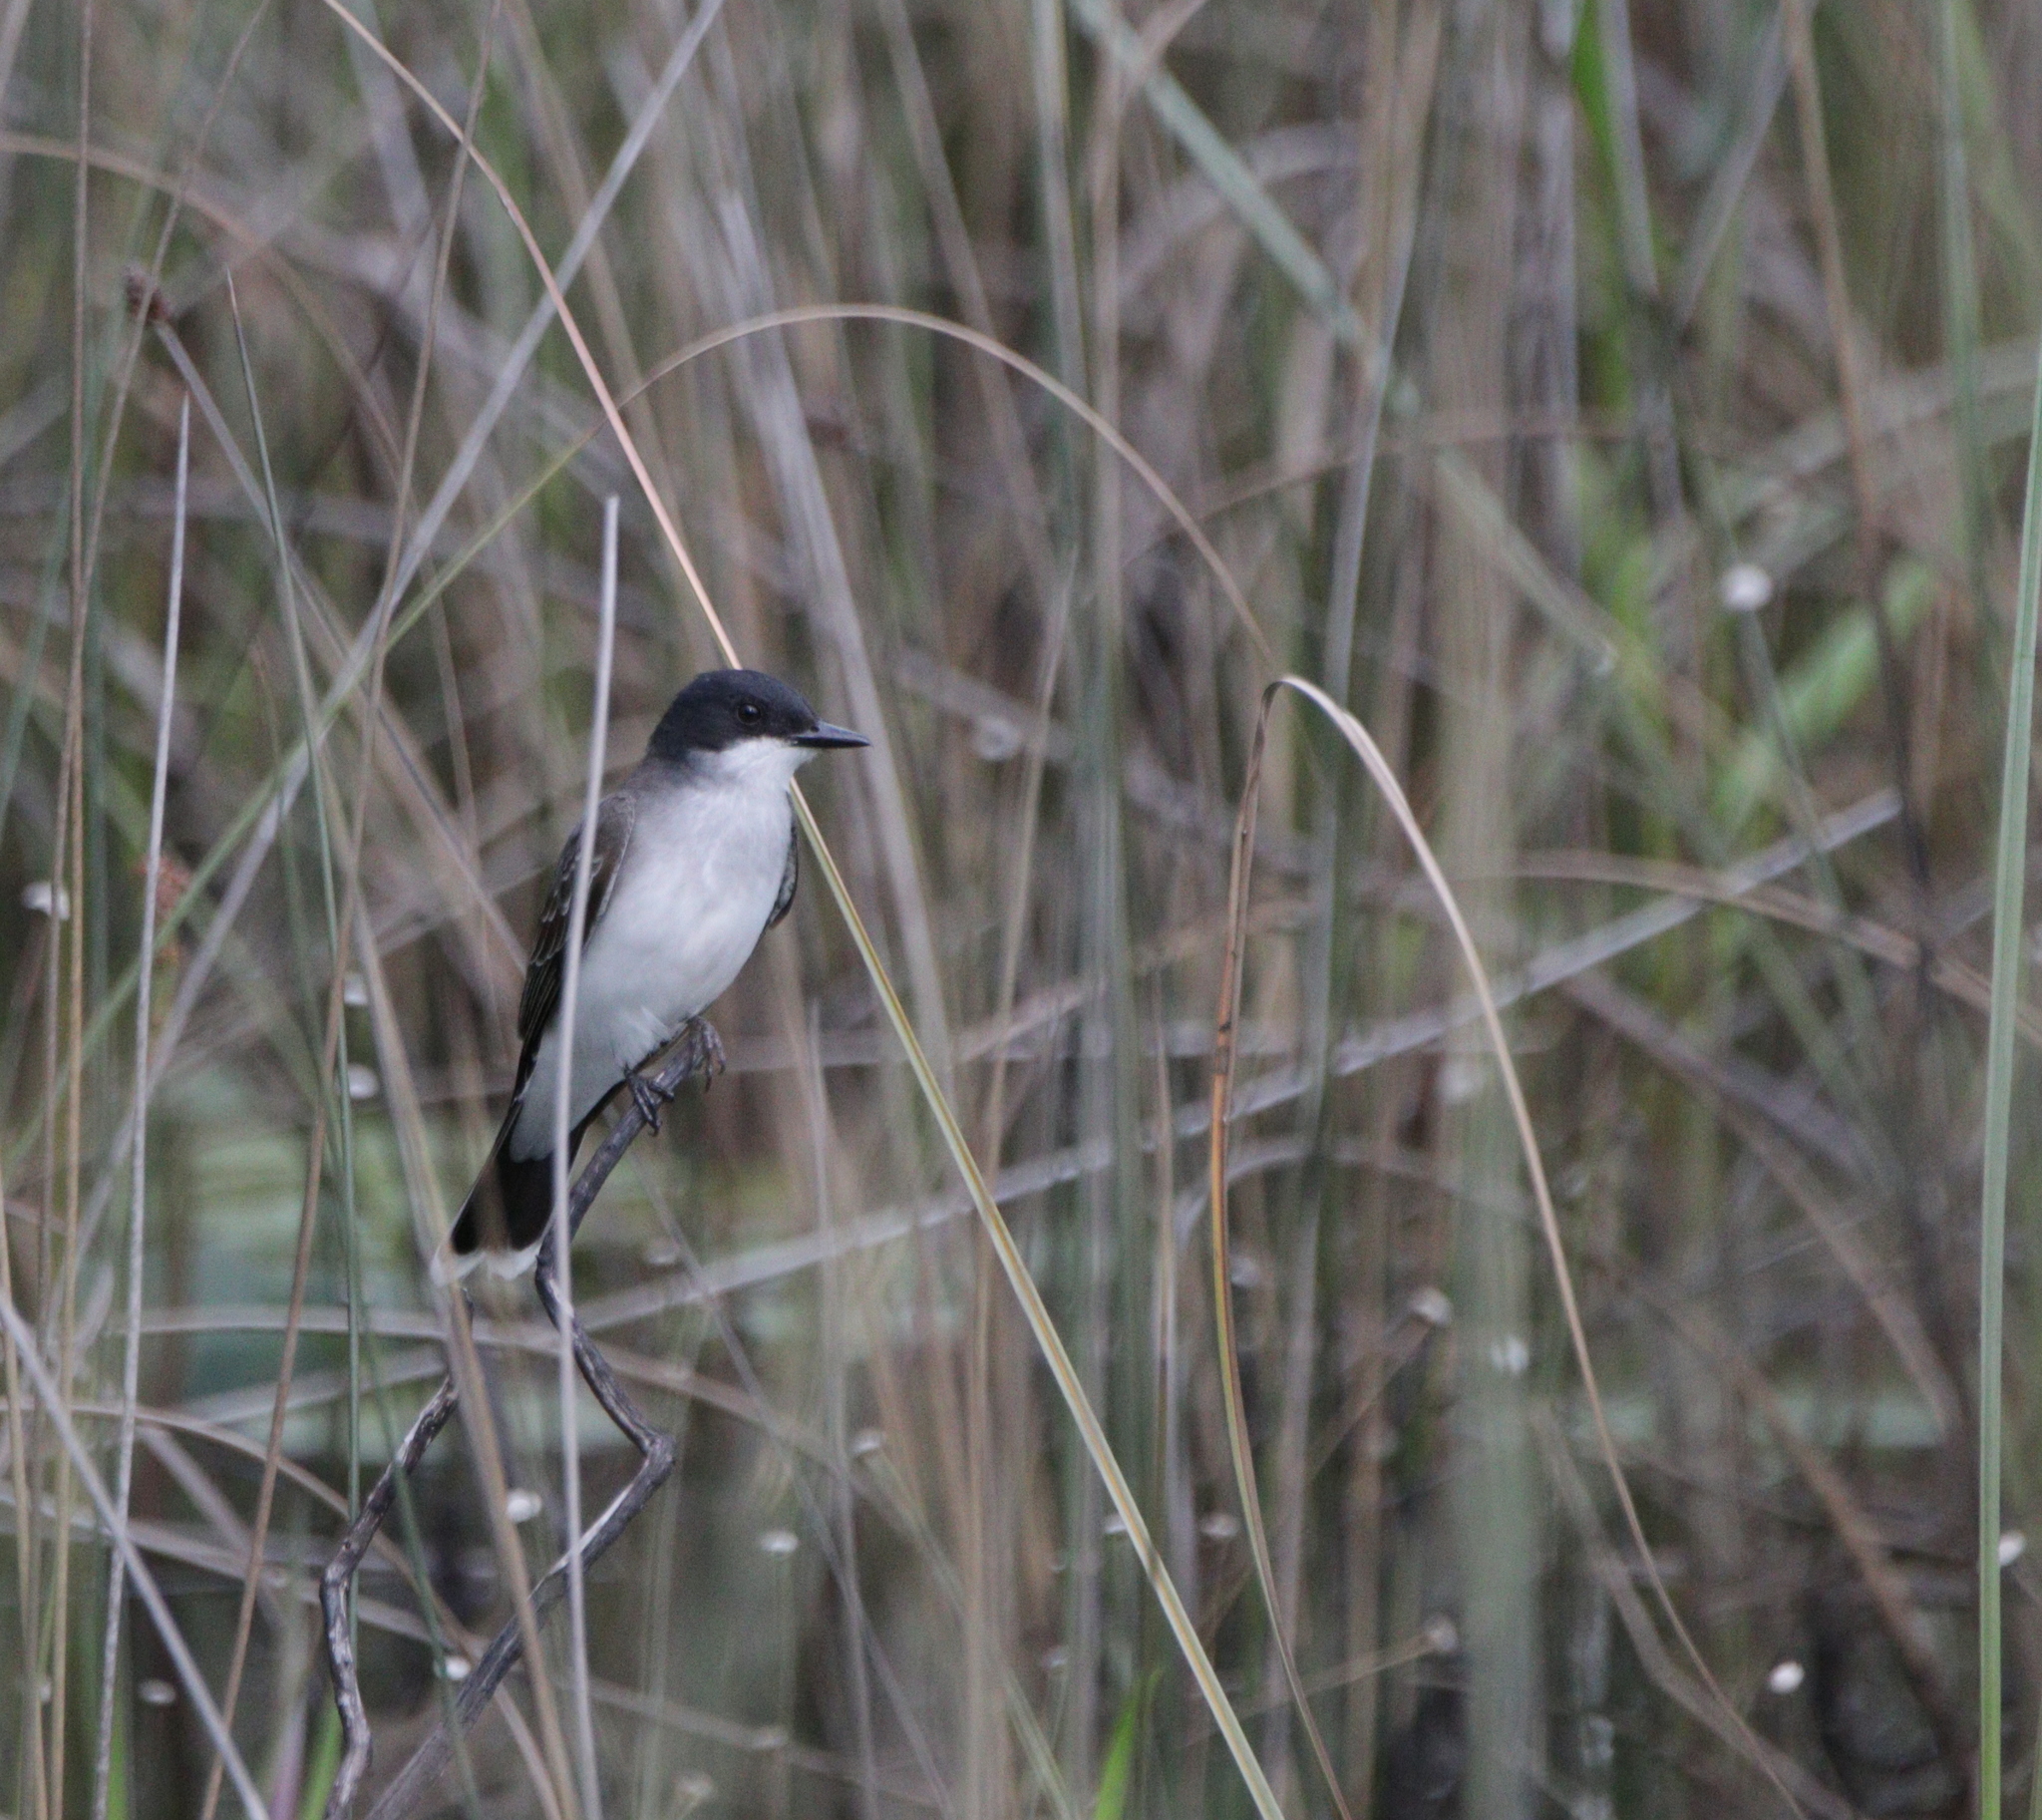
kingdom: Animalia
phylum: Chordata
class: Aves
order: Passeriformes
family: Tyrannidae
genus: Tyrannus
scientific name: Tyrannus tyrannus
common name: Eastern kingbird
